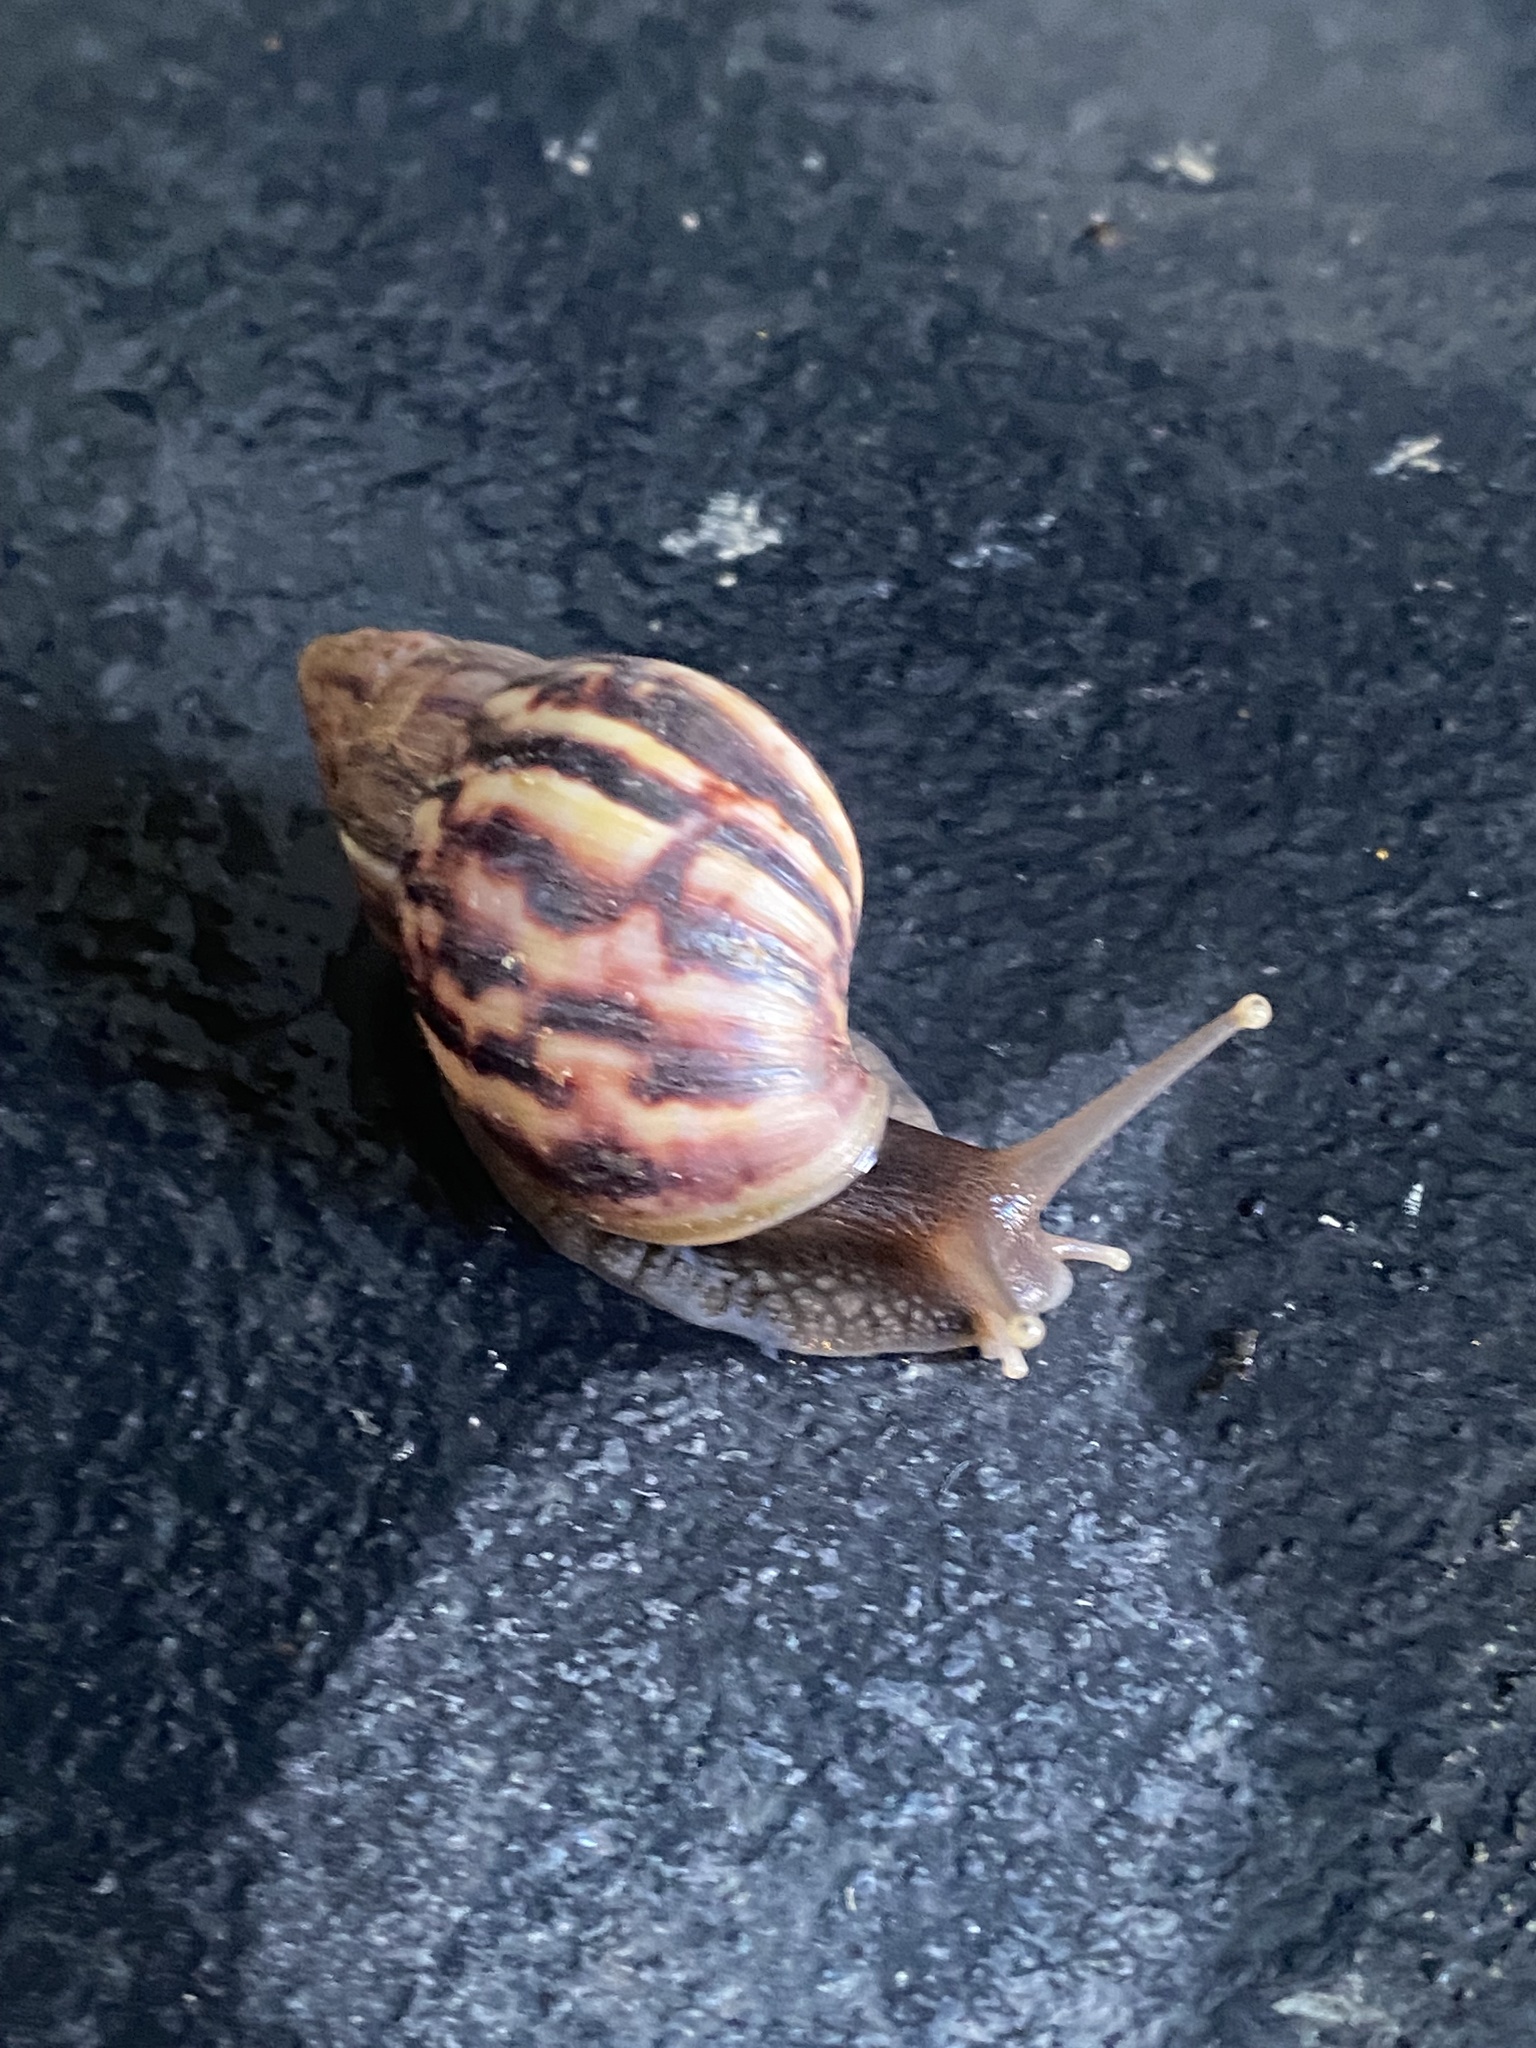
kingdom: Animalia
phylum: Mollusca
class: Gastropoda
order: Stylommatophora
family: Achatinidae
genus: Lissachatina
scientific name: Lissachatina fulica
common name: Giant african snail
